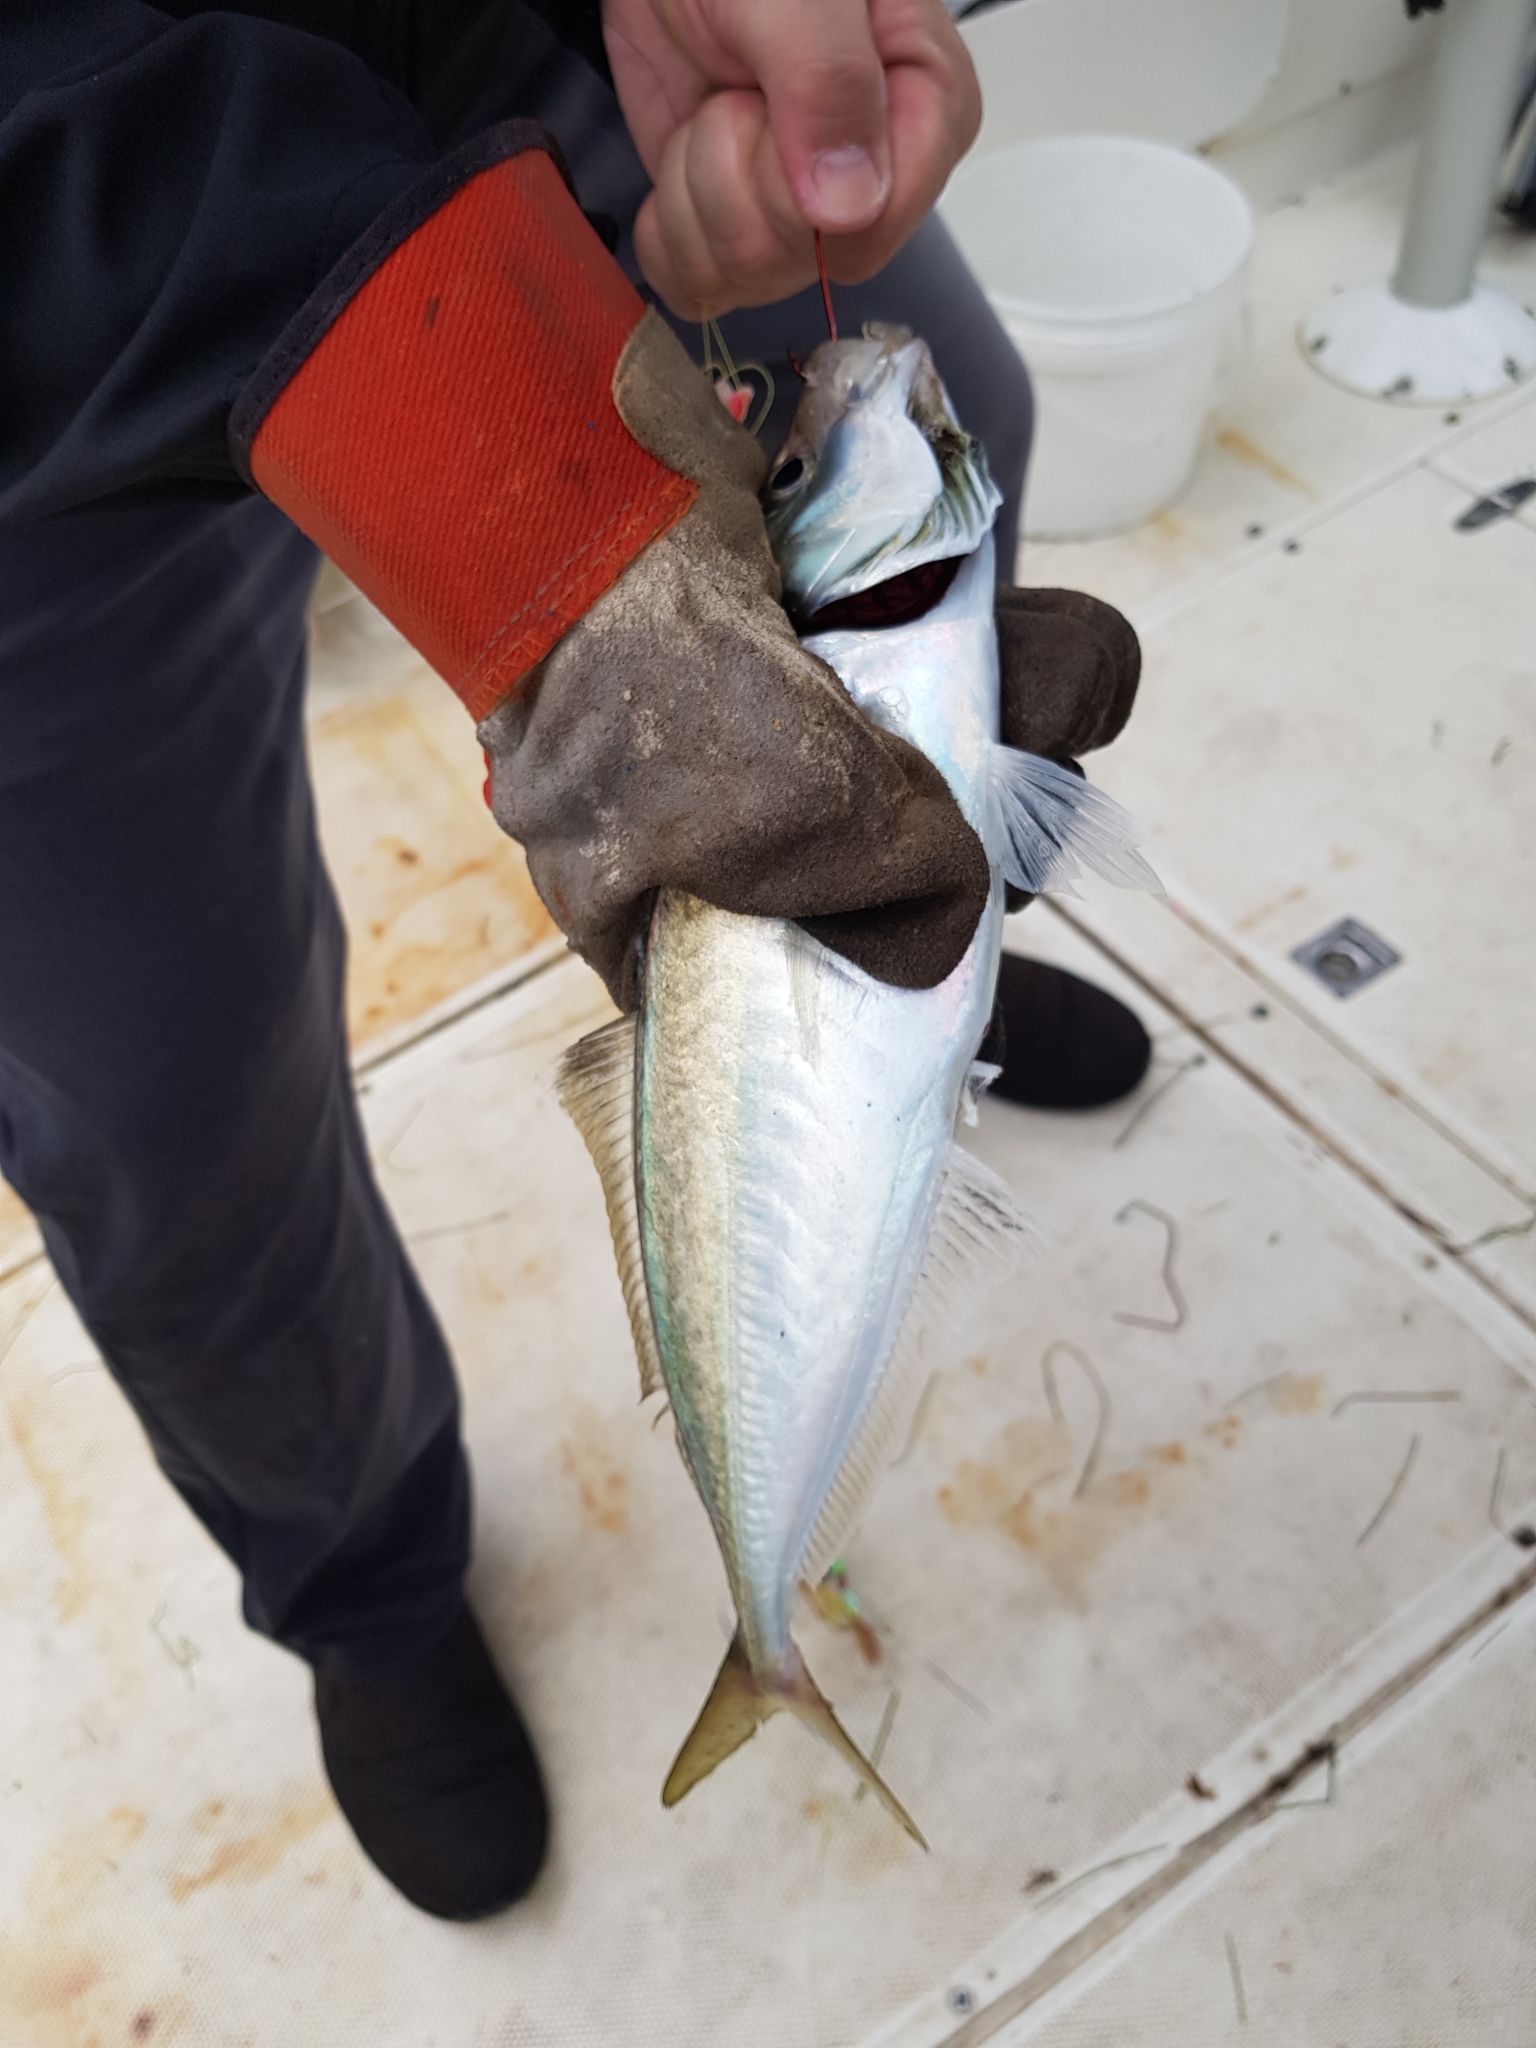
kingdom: Animalia
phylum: Chordata
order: Perciformes
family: Carangidae
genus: Trachurus
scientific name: Trachurus novaezelandiae
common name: Yellowtail horse mackerel
